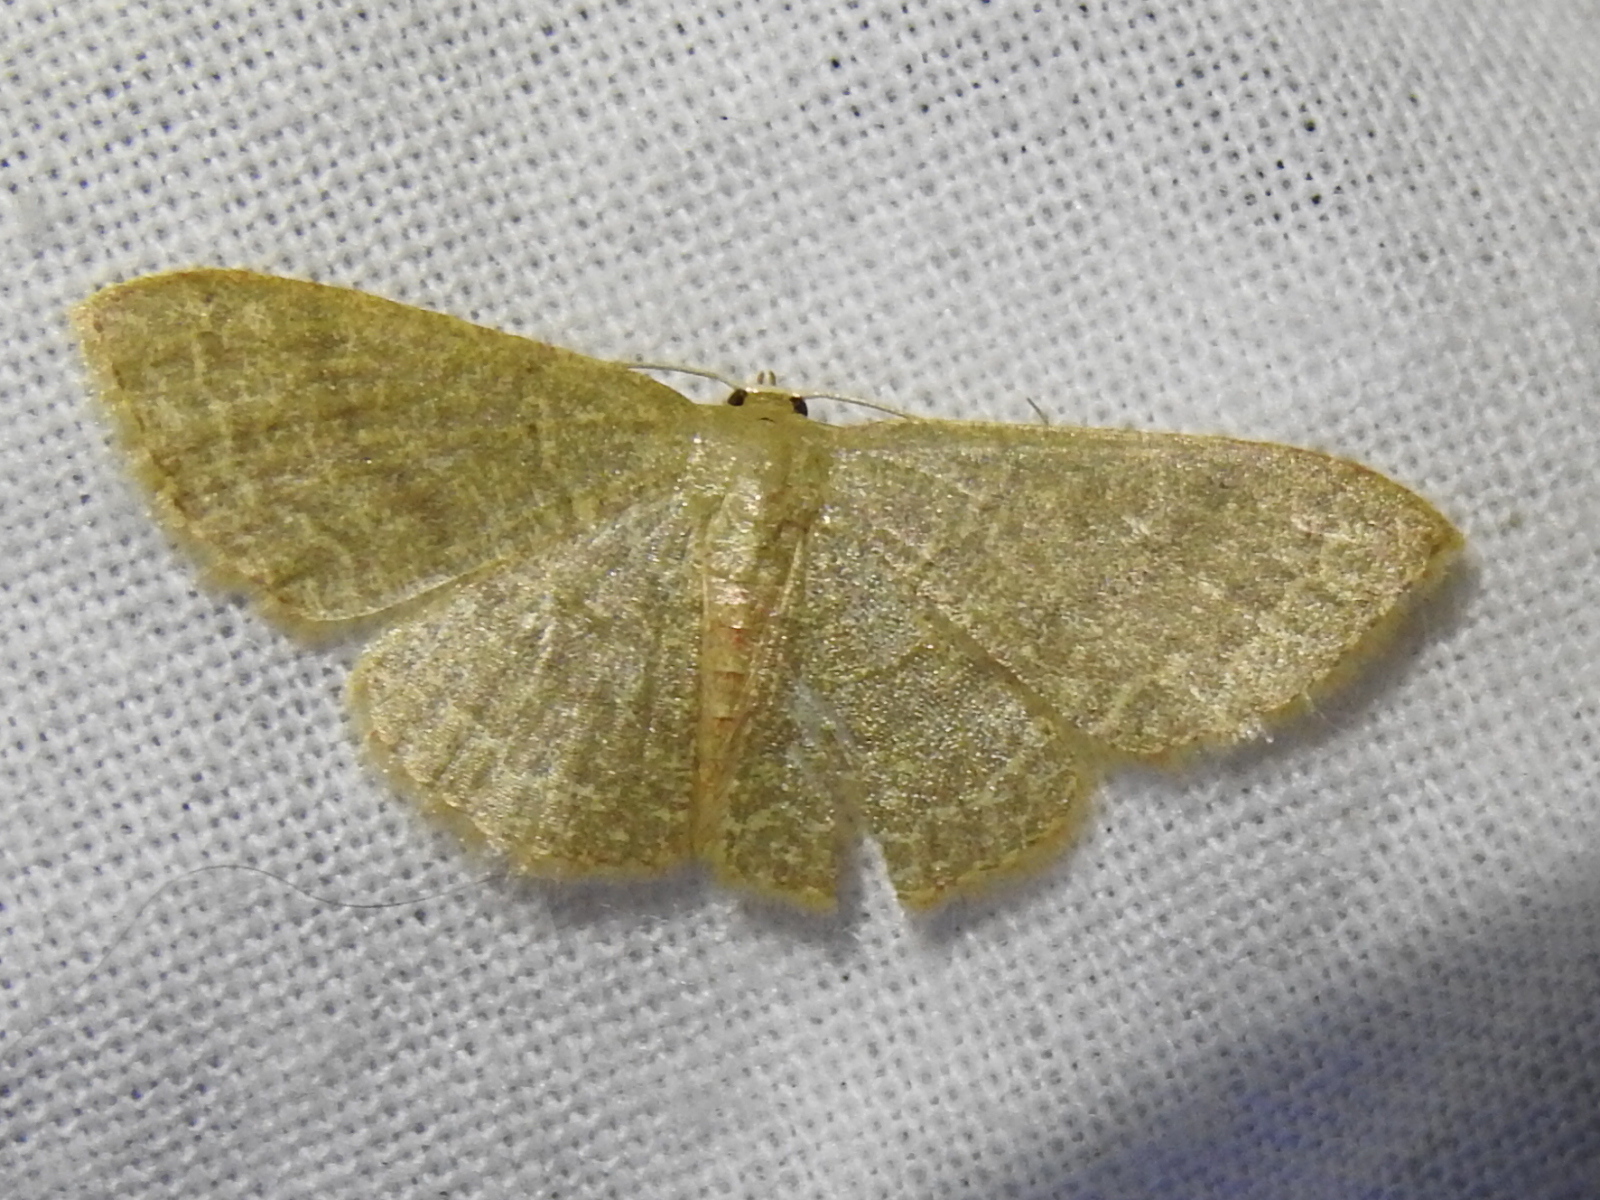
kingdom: Animalia
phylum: Arthropoda
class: Insecta
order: Lepidoptera
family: Geometridae
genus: Pleuroprucha
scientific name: Pleuroprucha insulsaria
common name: Common tan wave
